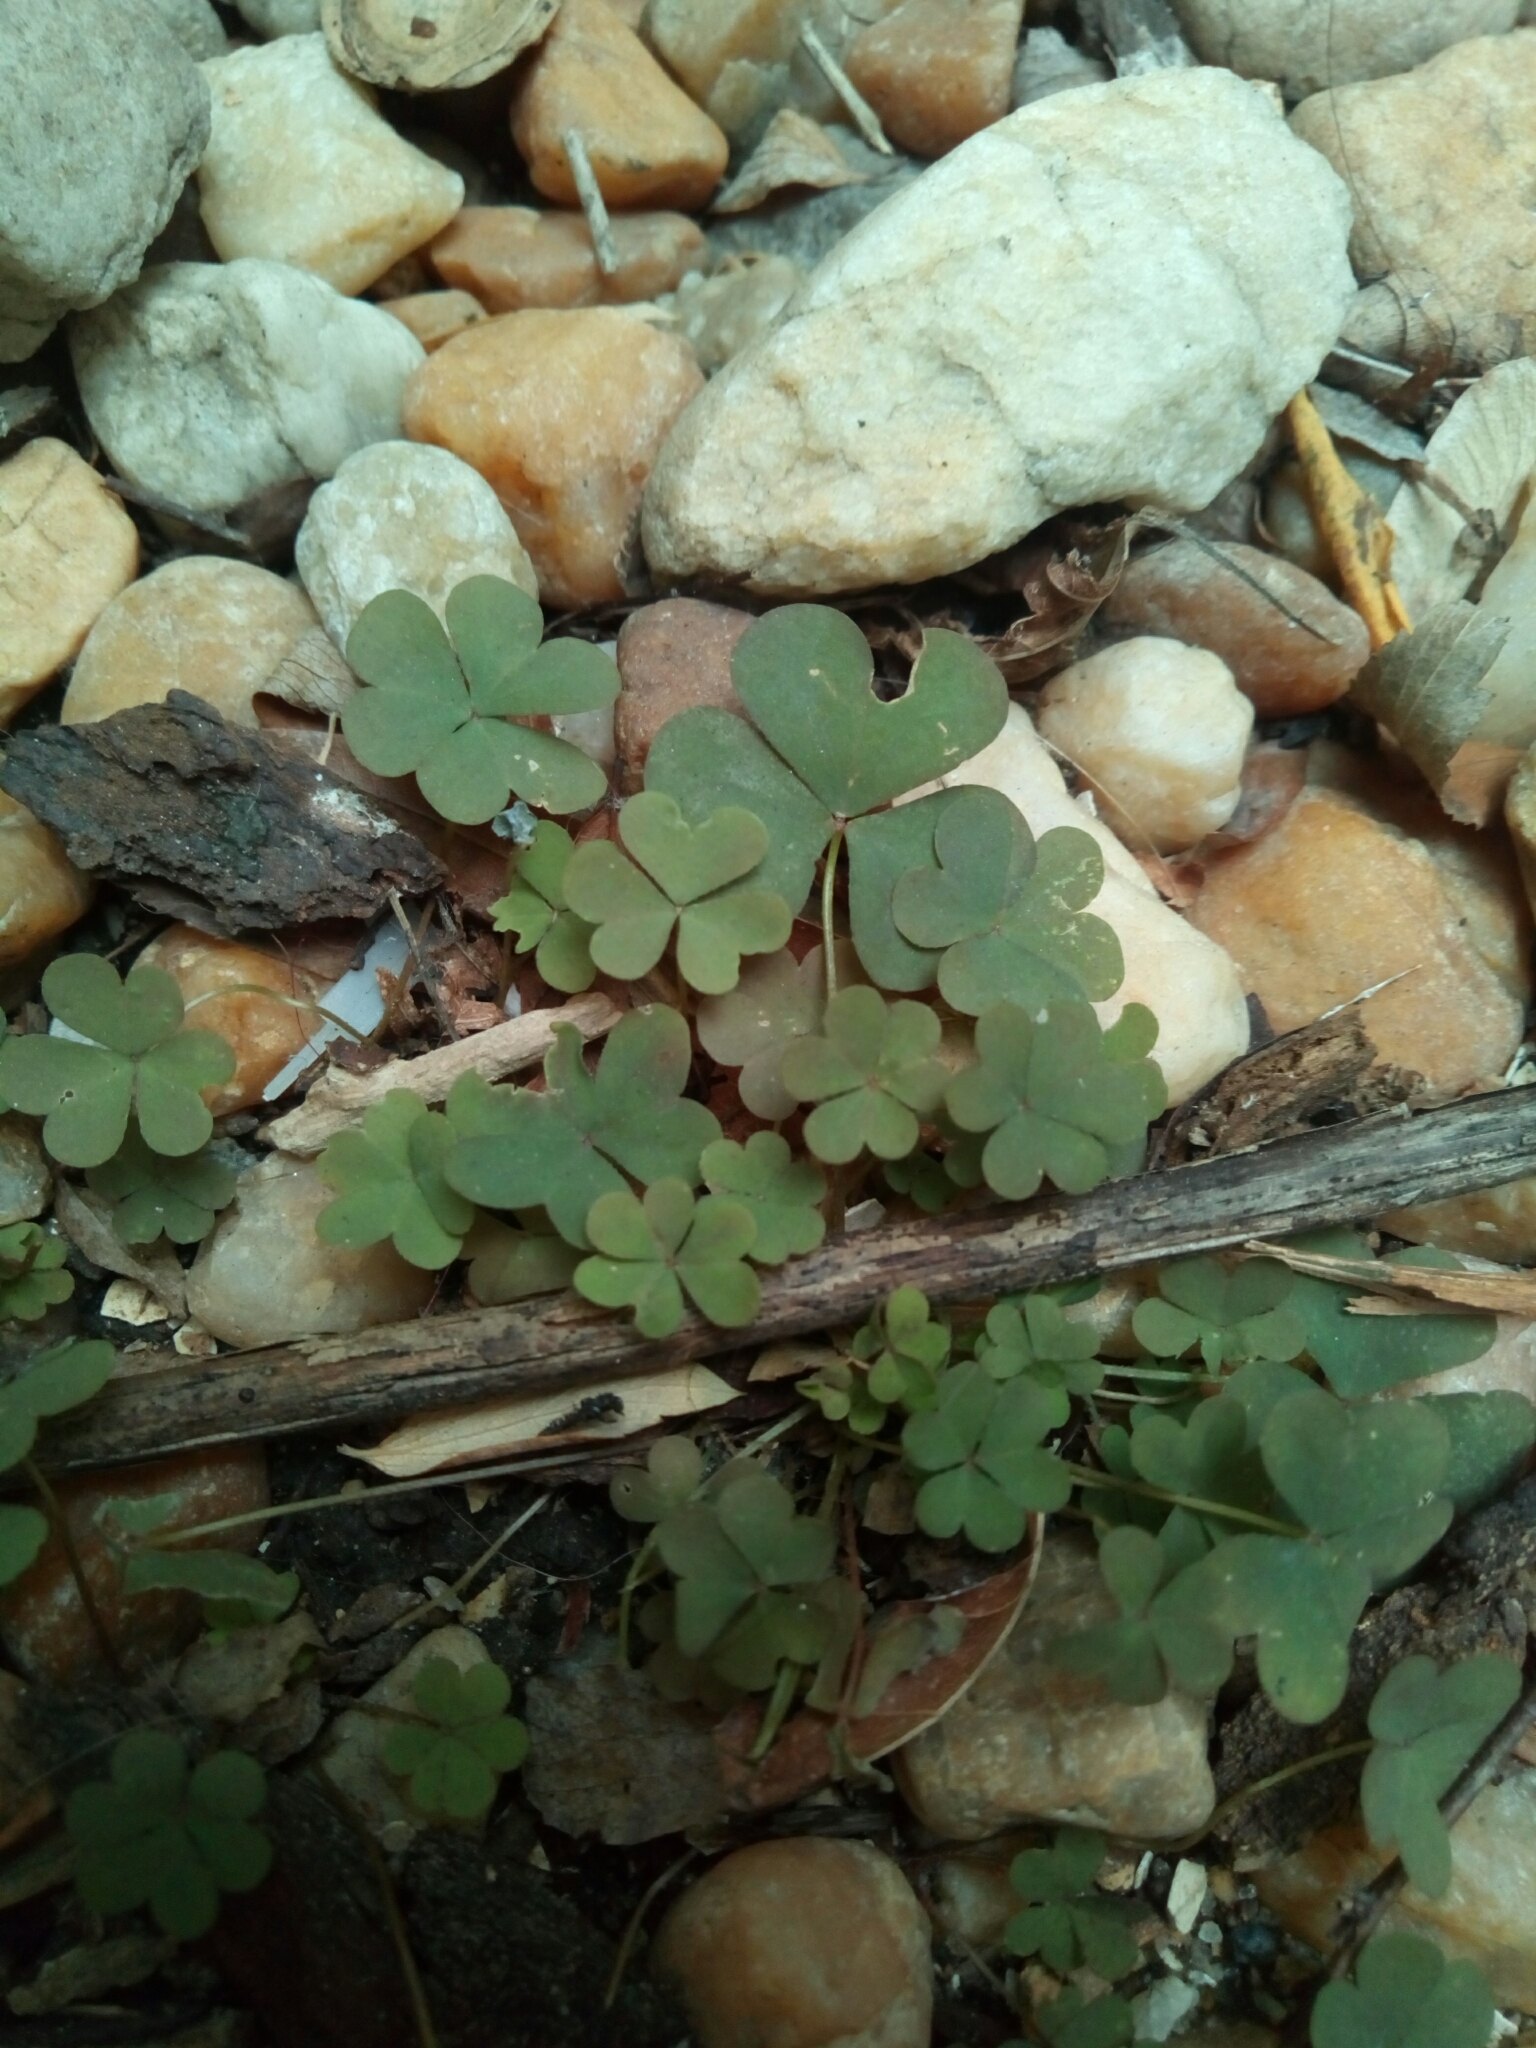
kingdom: Plantae
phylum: Tracheophyta
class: Magnoliopsida
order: Oxalidales
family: Oxalidaceae
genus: Oxalis
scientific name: Oxalis corniculata
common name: Procumbent yellow-sorrel
